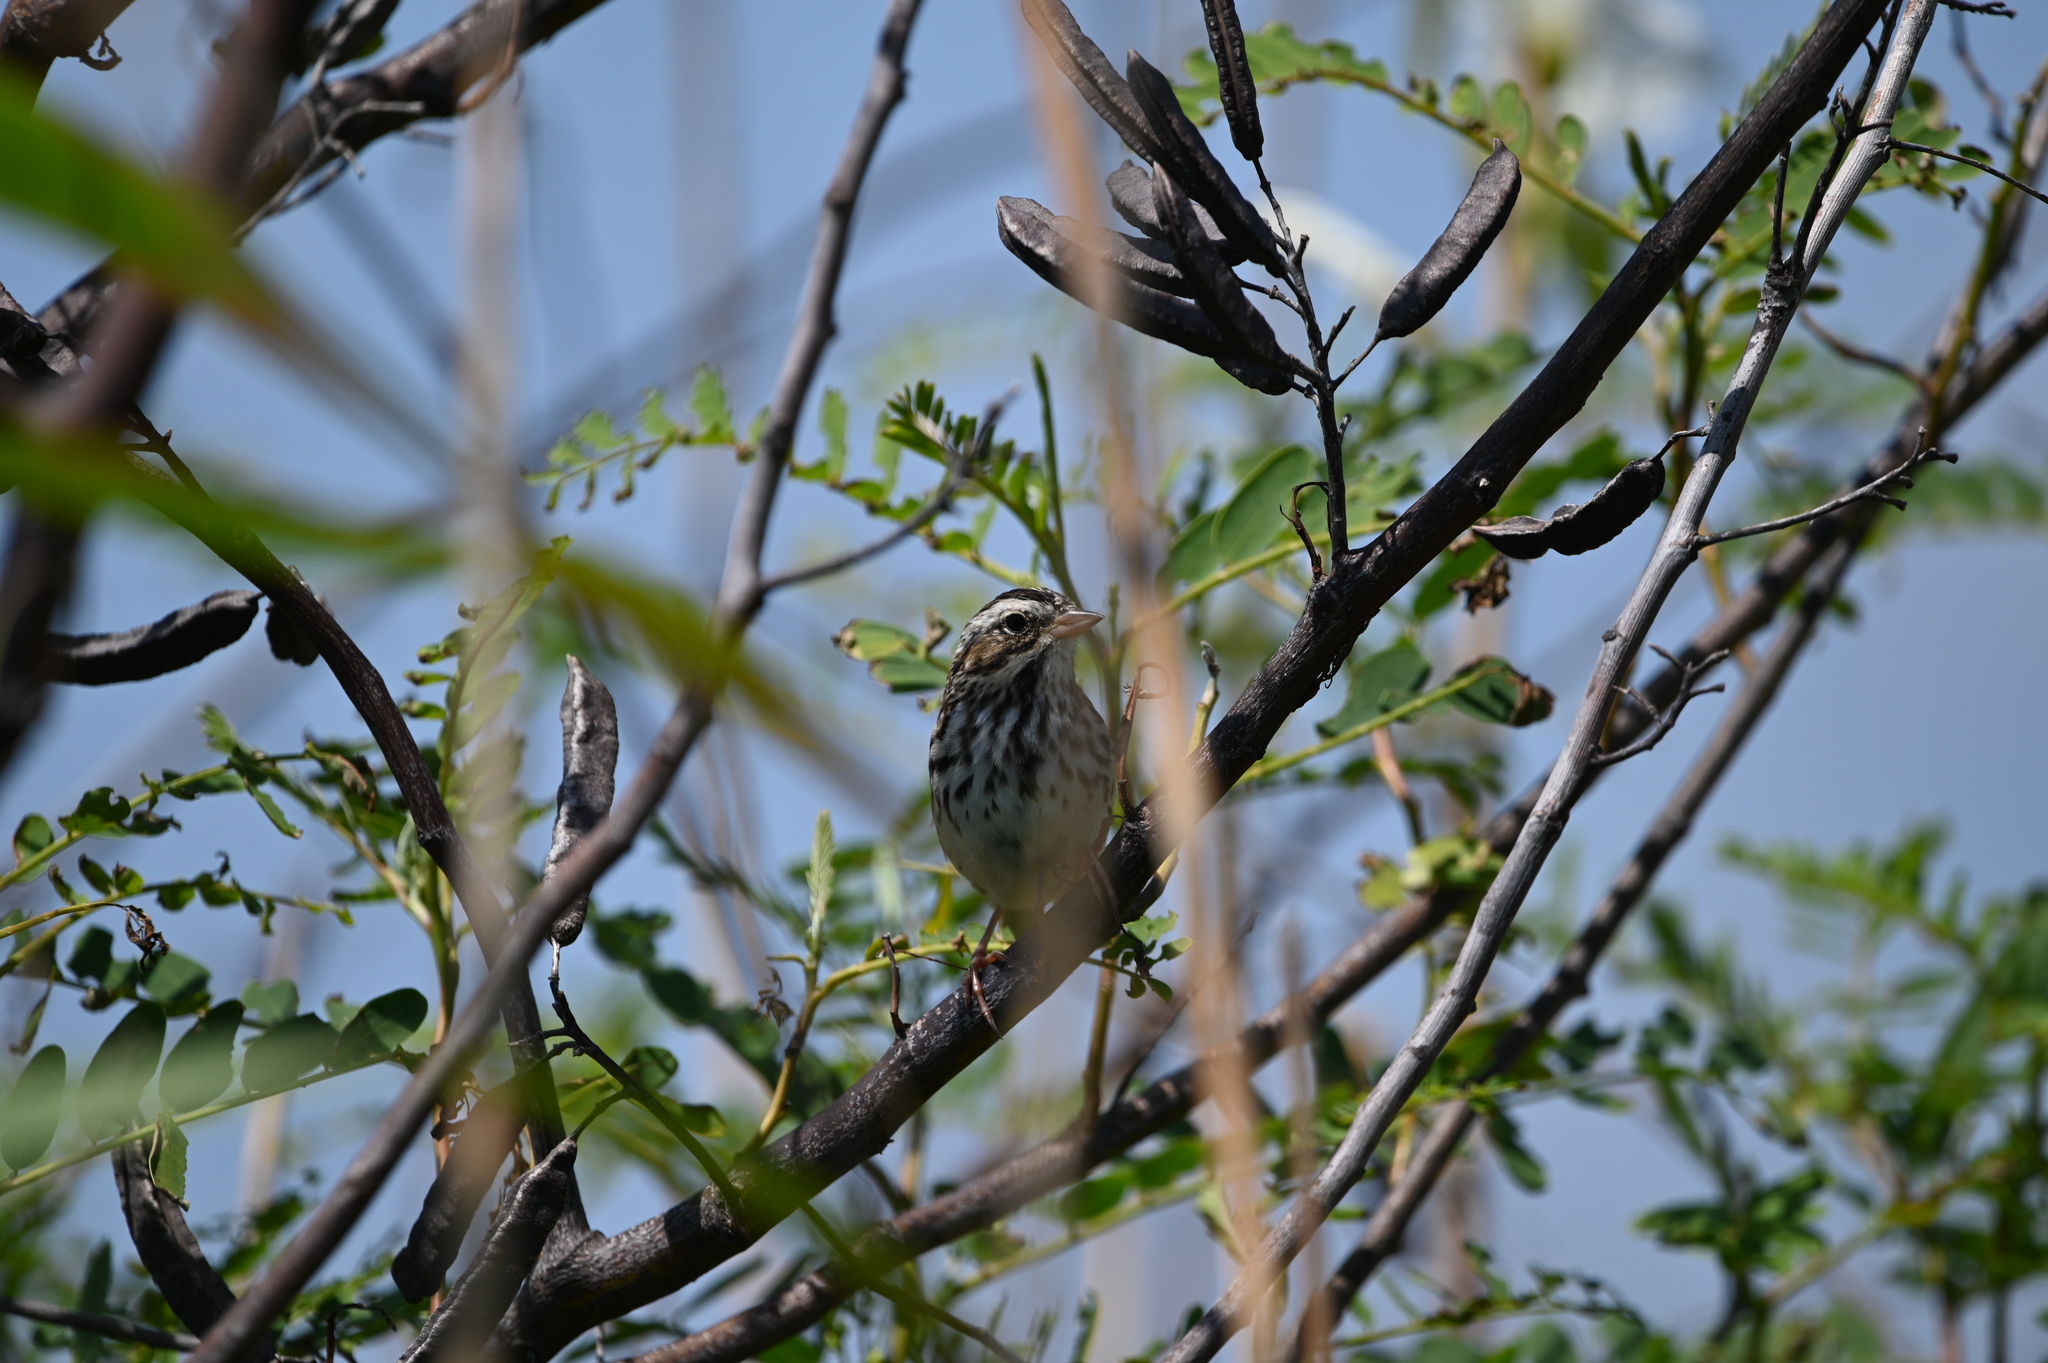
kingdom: Animalia
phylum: Chordata
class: Aves
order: Passeriformes
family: Passerellidae
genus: Passerculus
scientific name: Passerculus sandwichensis
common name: Savannah sparrow
